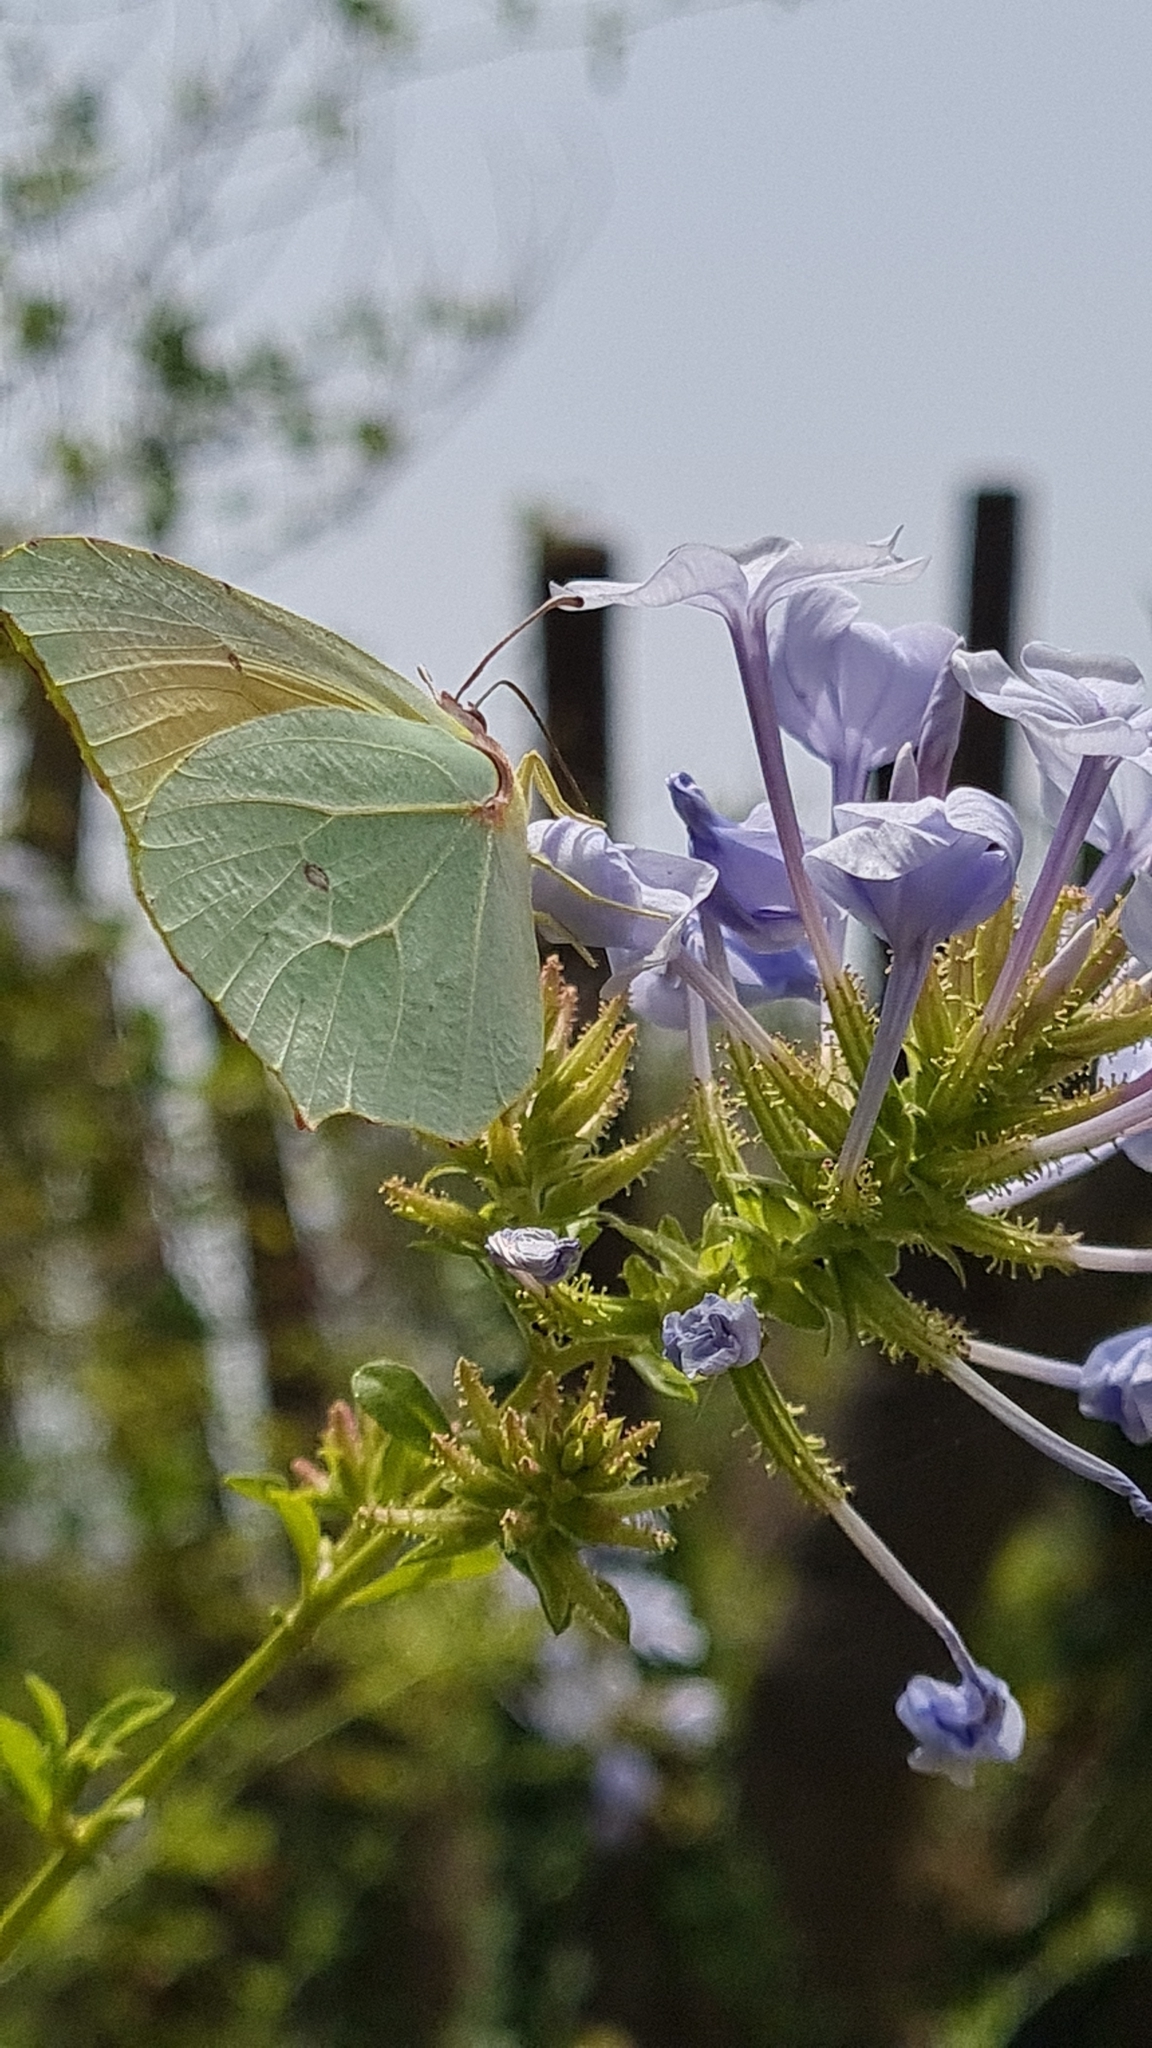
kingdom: Animalia
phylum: Arthropoda
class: Insecta
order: Lepidoptera
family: Pieridae
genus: Gonepteryx
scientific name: Gonepteryx cleopatra
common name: Cleopatra
